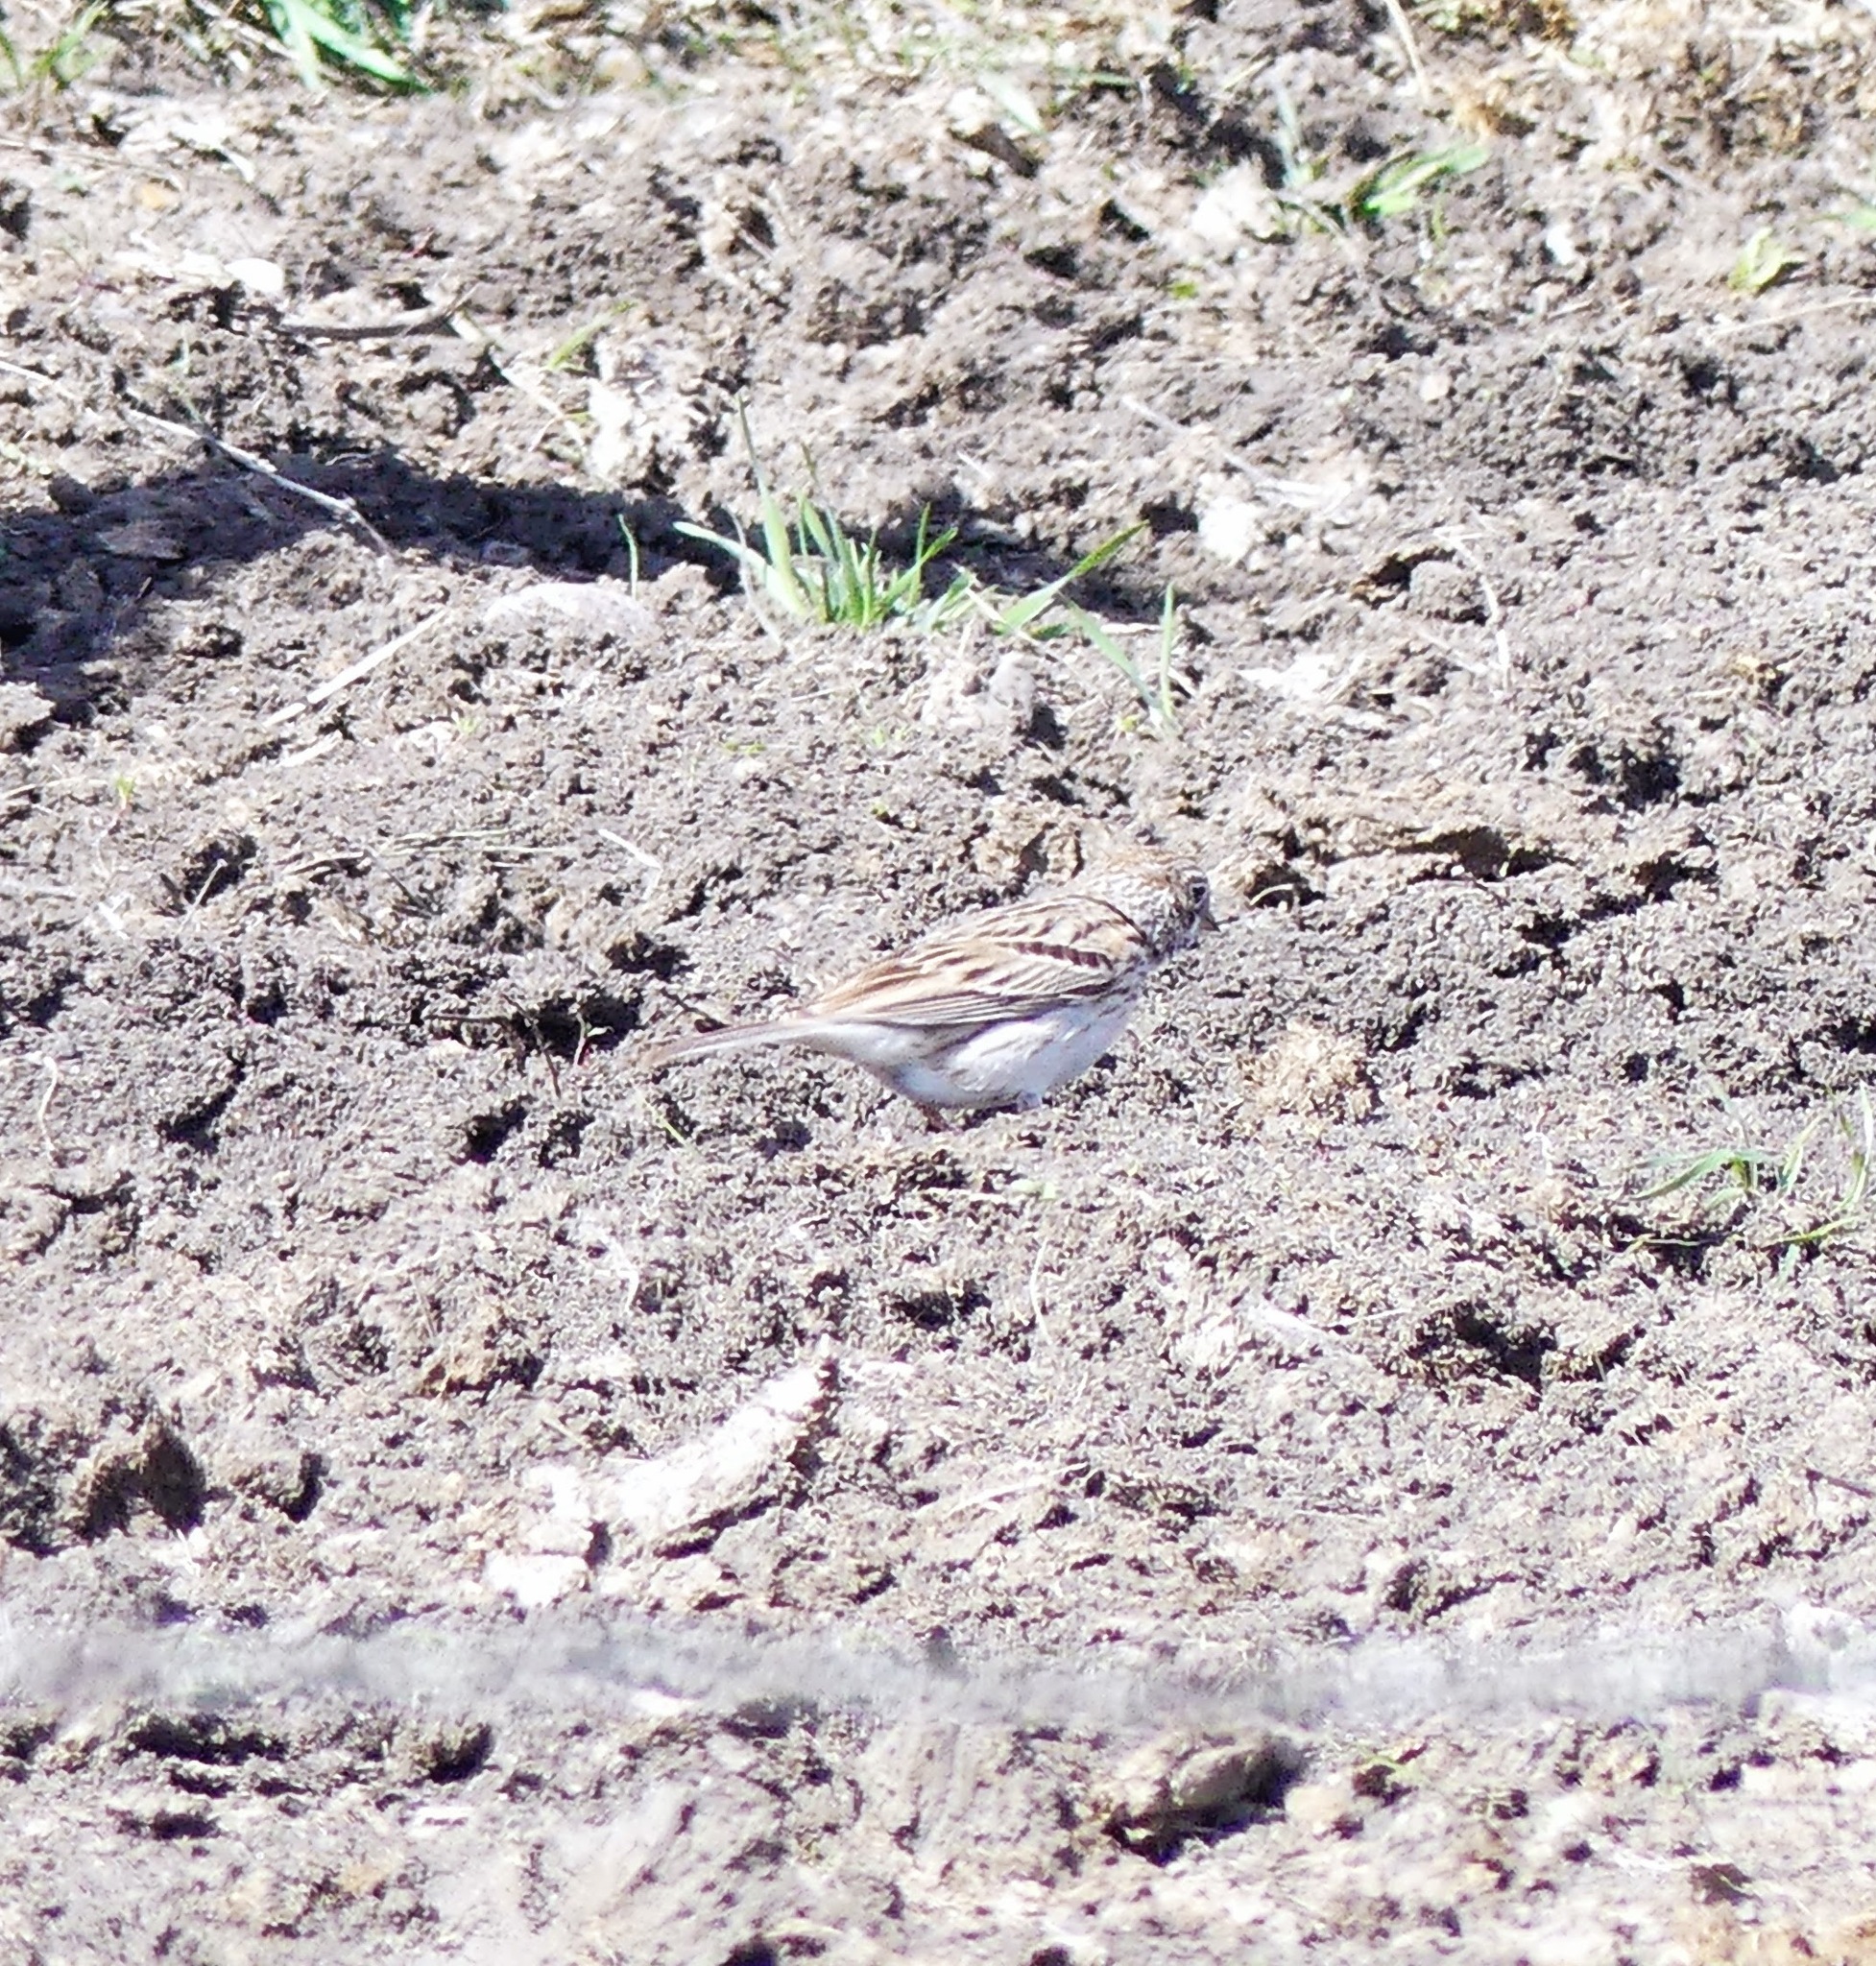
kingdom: Animalia
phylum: Chordata
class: Aves
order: Passeriformes
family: Passerellidae
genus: Pooecetes
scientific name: Pooecetes gramineus
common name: Vesper sparrow
